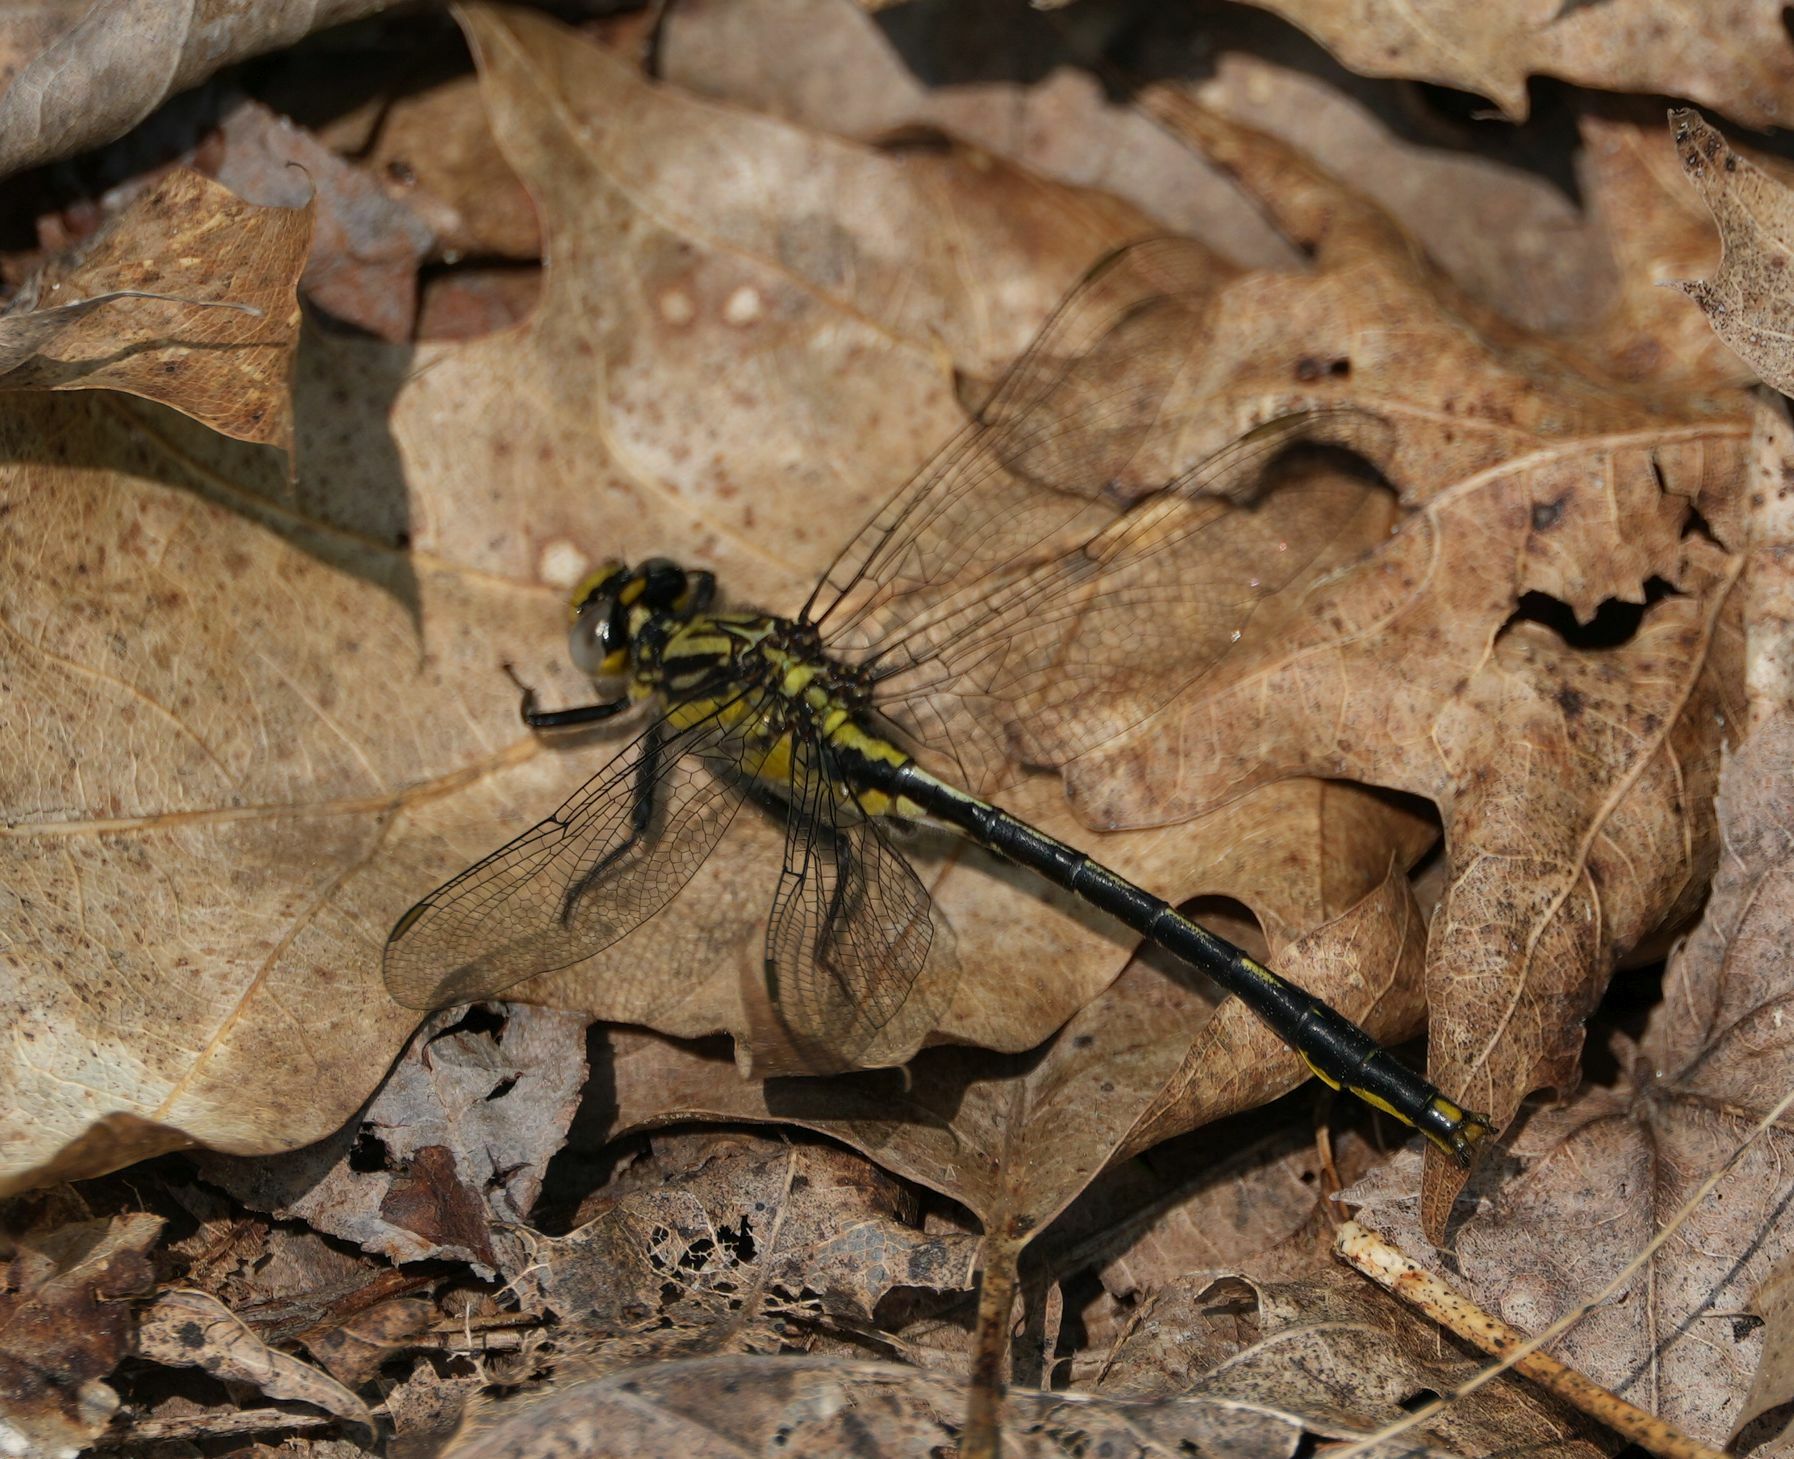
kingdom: Animalia
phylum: Arthropoda
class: Insecta
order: Odonata
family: Gomphidae
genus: Arigomphus
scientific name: Arigomphus furcifer
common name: Lilypad clubtail
